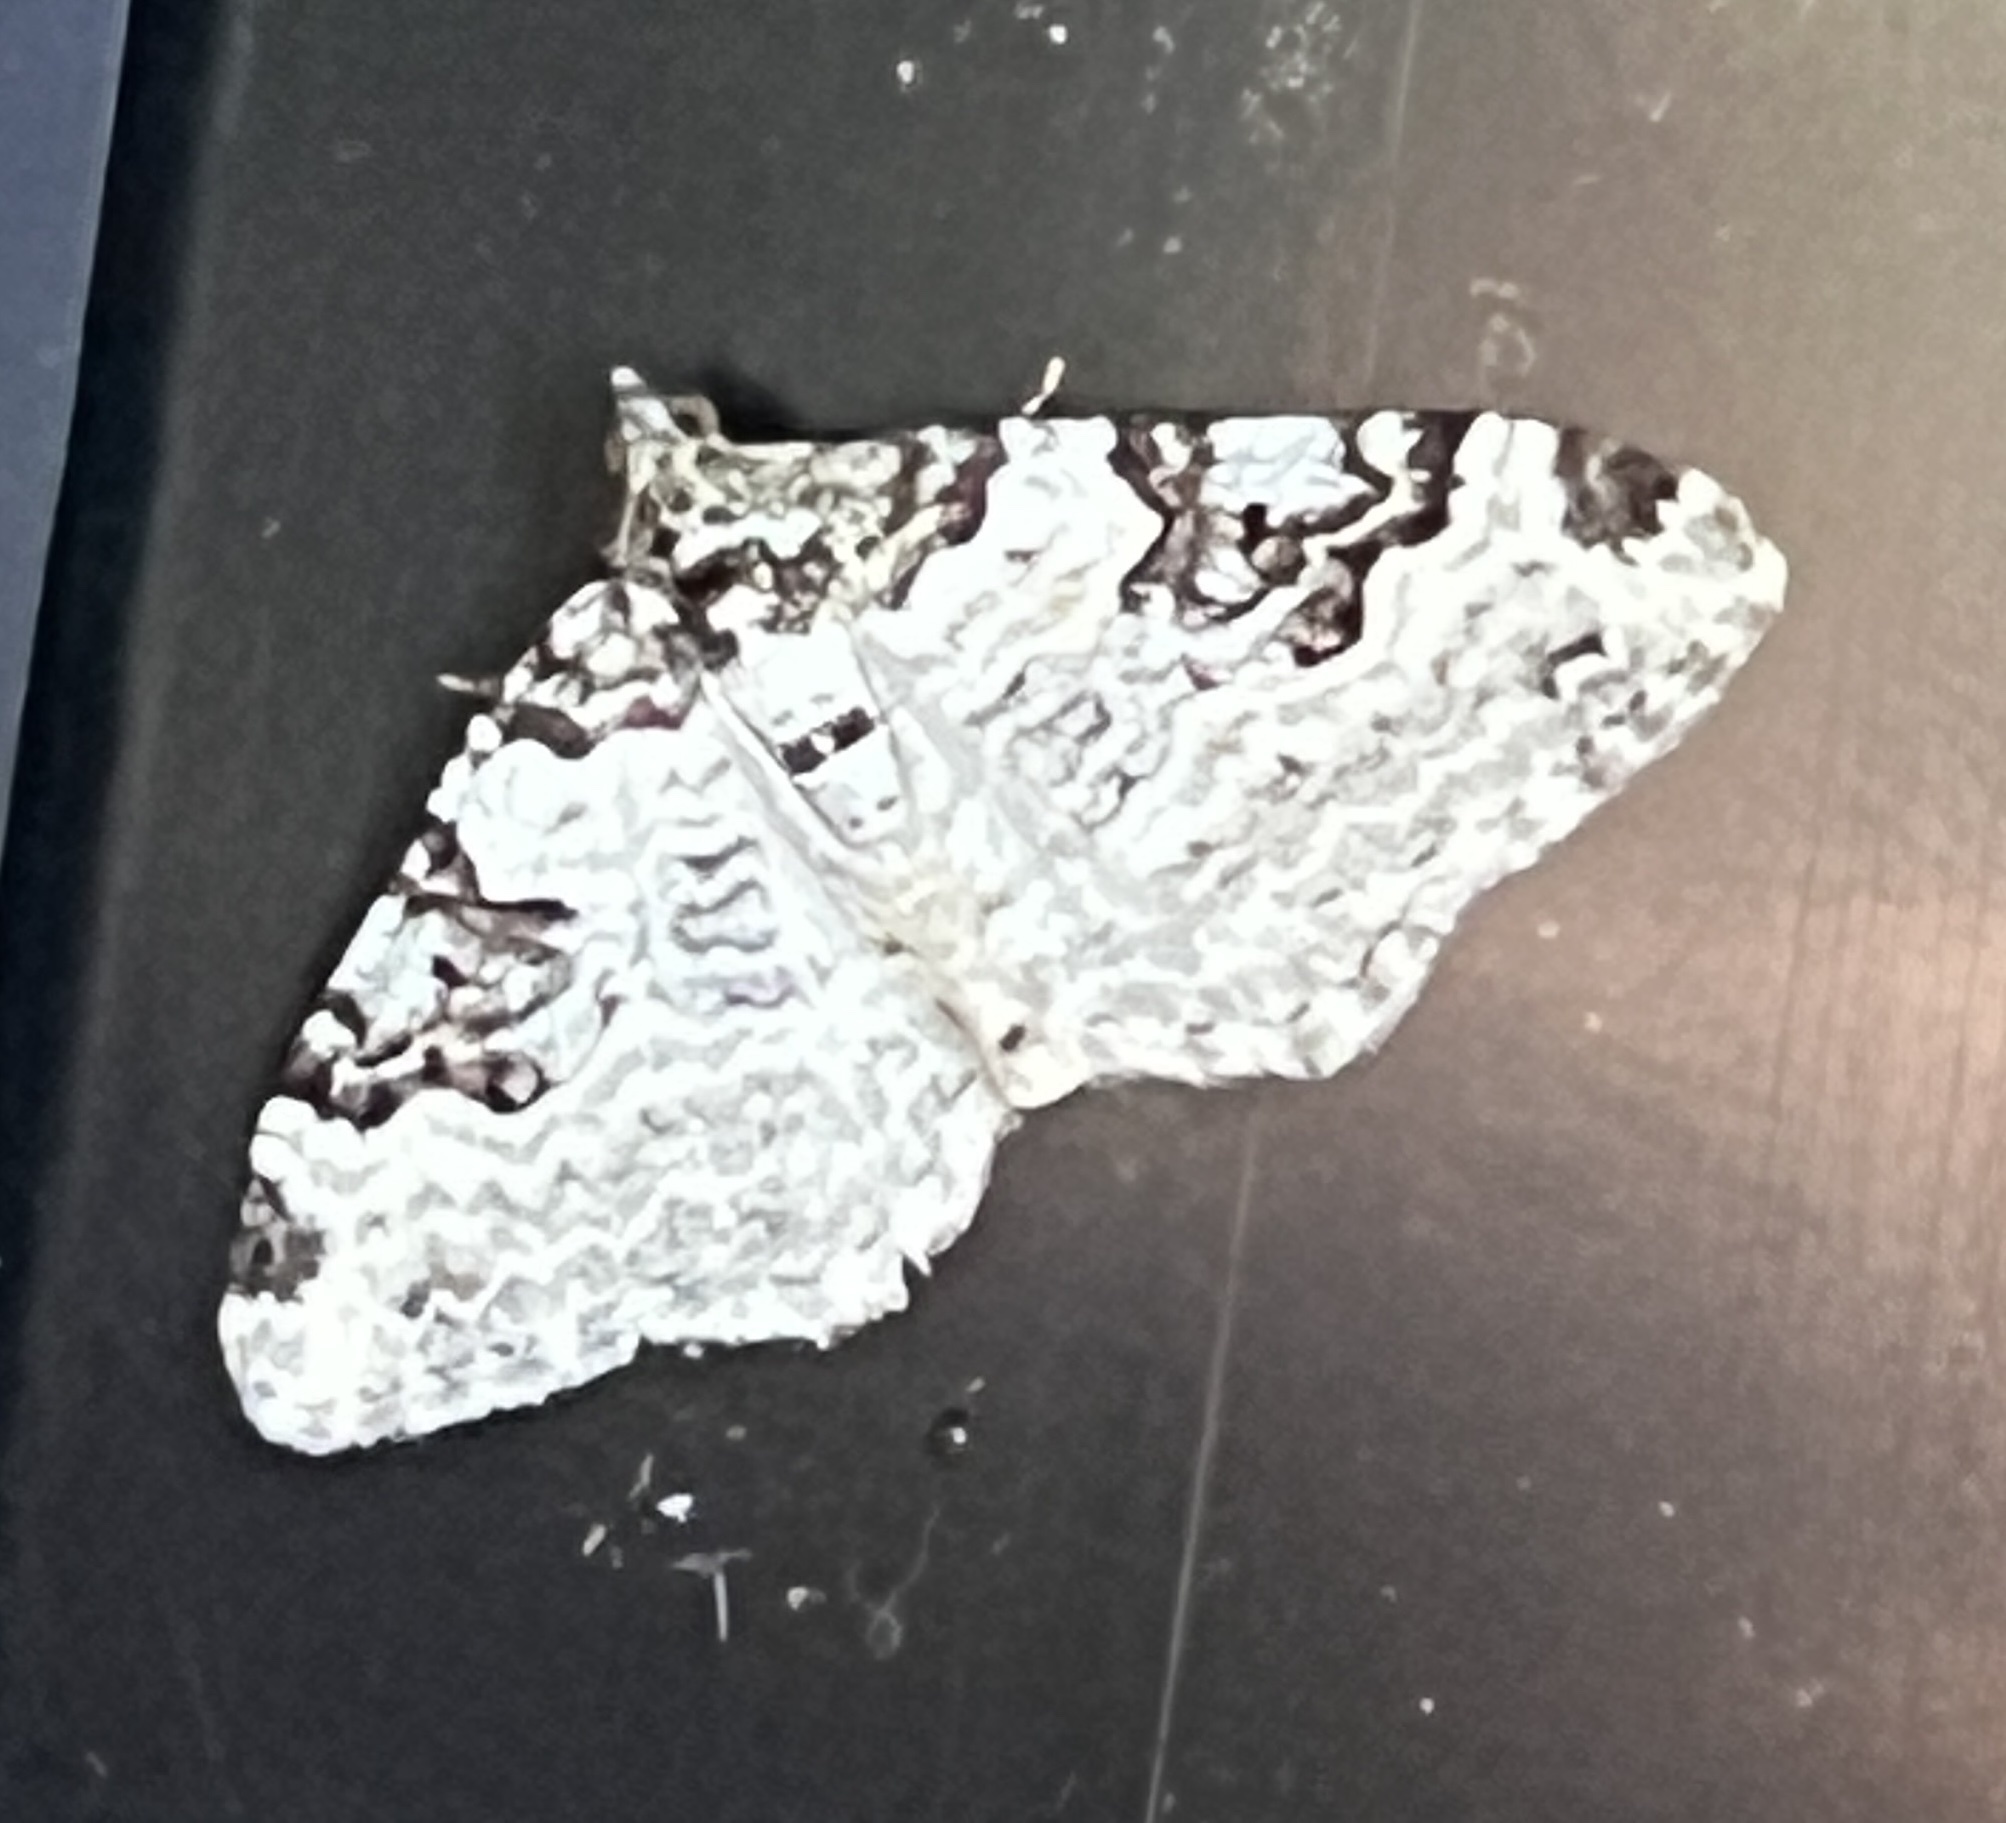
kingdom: Animalia
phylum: Arthropoda
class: Insecta
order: Lepidoptera
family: Geometridae
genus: Xanthorhoe
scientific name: Xanthorhoe fluctuata
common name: Garden carpet
